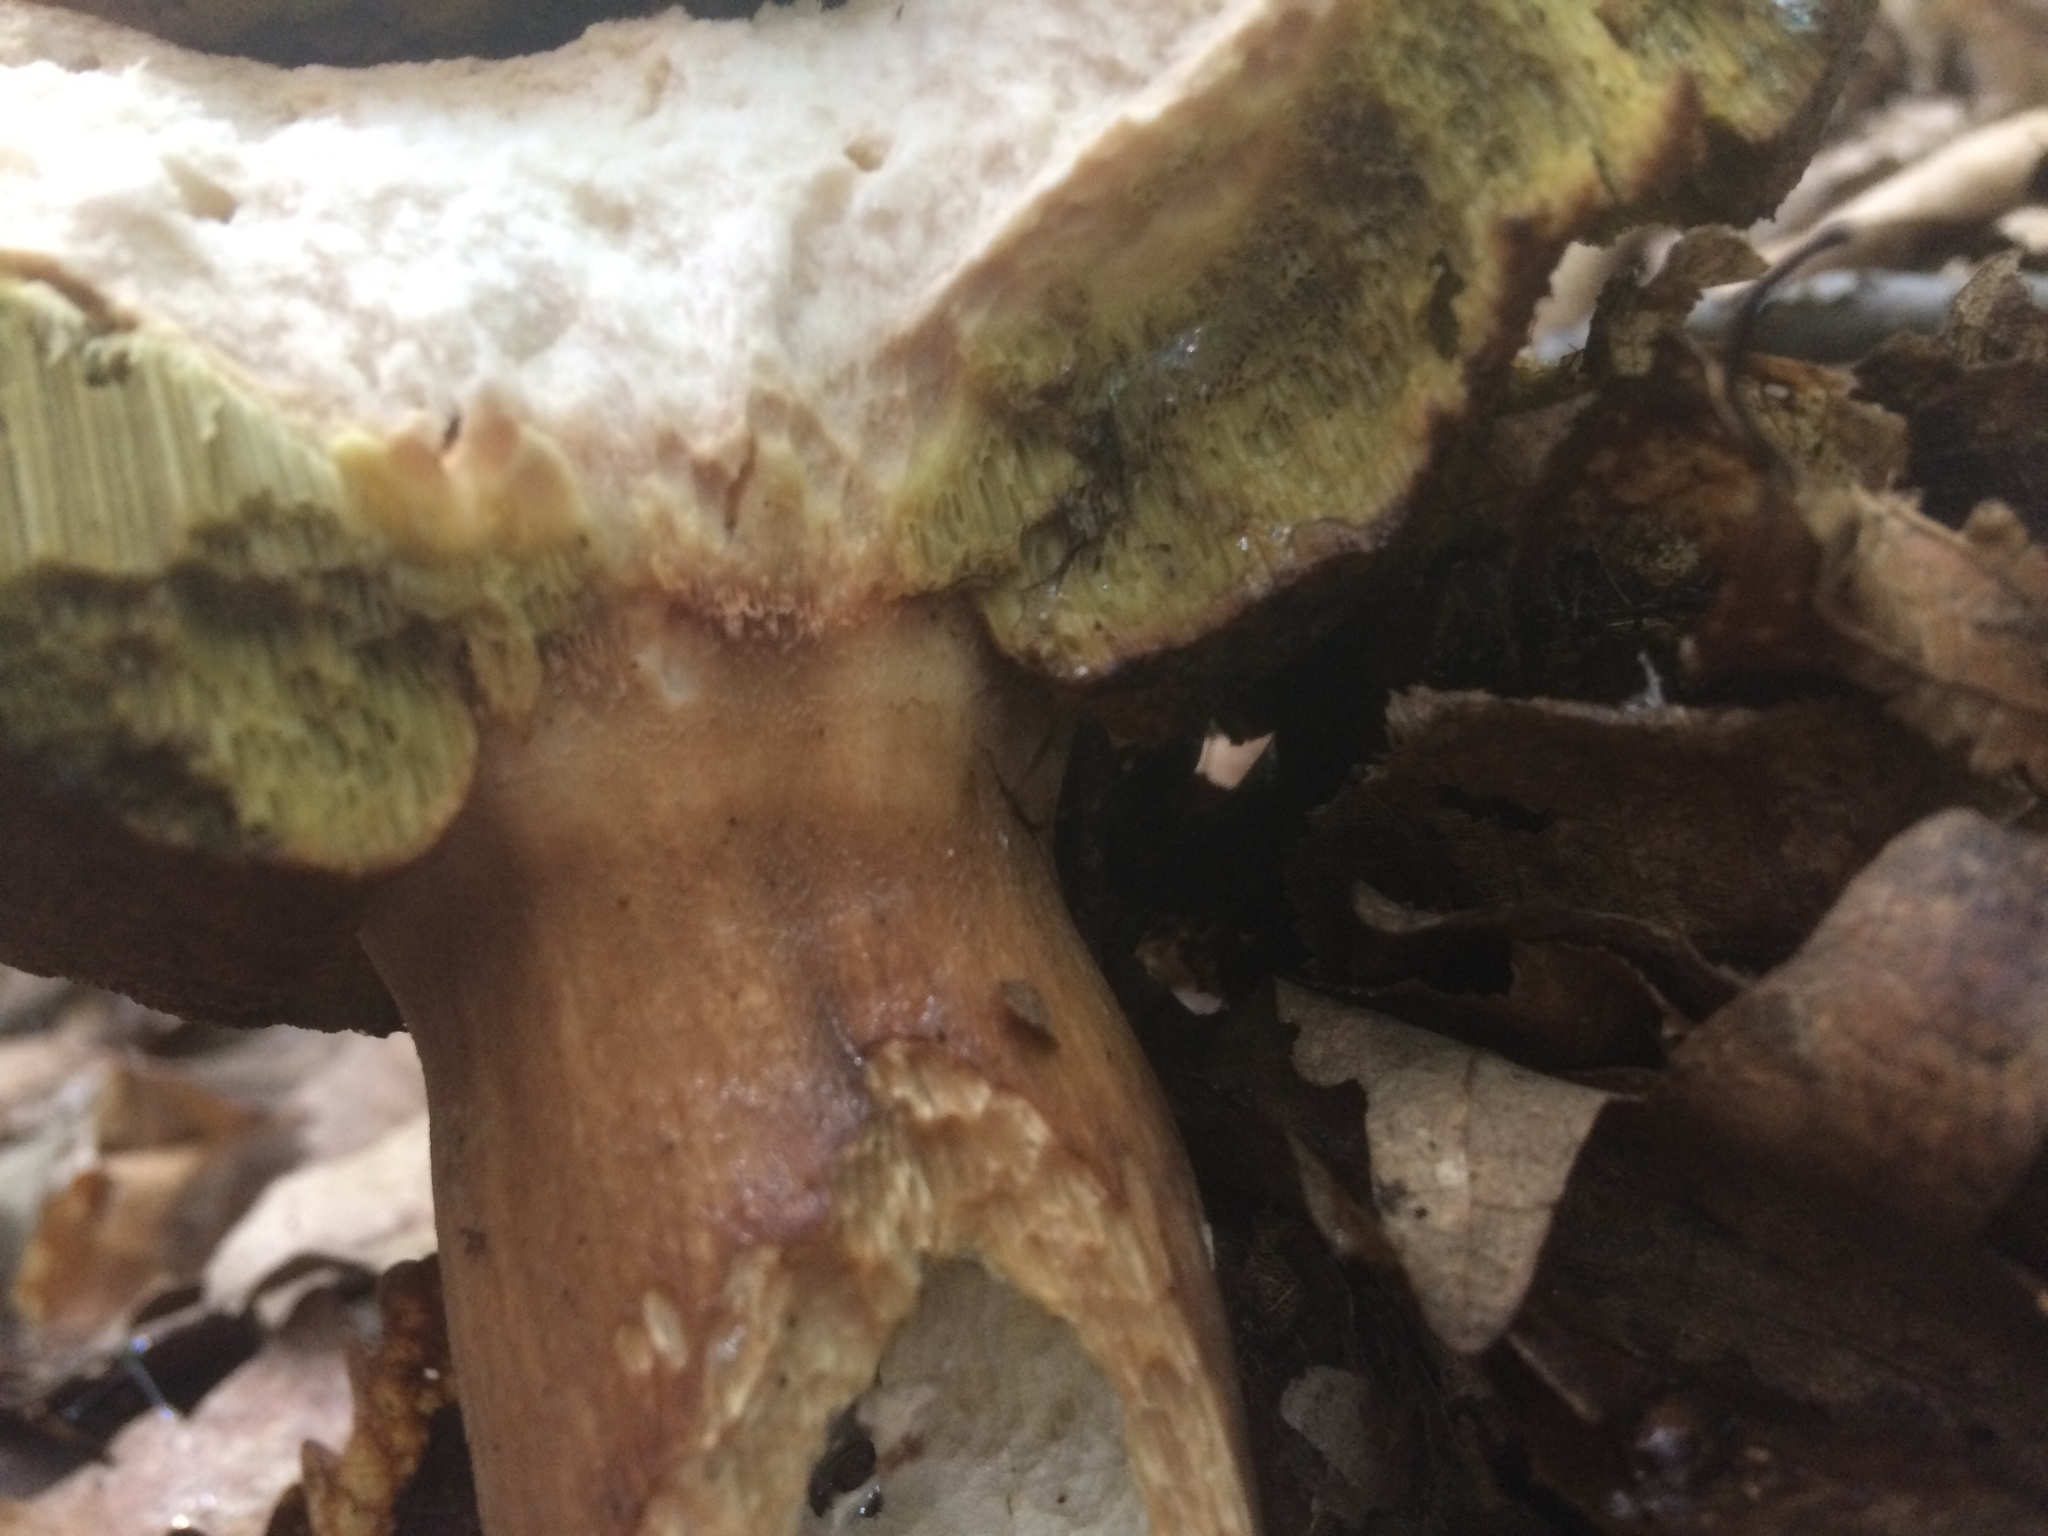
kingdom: Fungi
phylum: Basidiomycota
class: Agaricomycetes
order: Boletales
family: Boletaceae
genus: Boletus
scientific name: Boletus reticulatus
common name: Summer bolete
